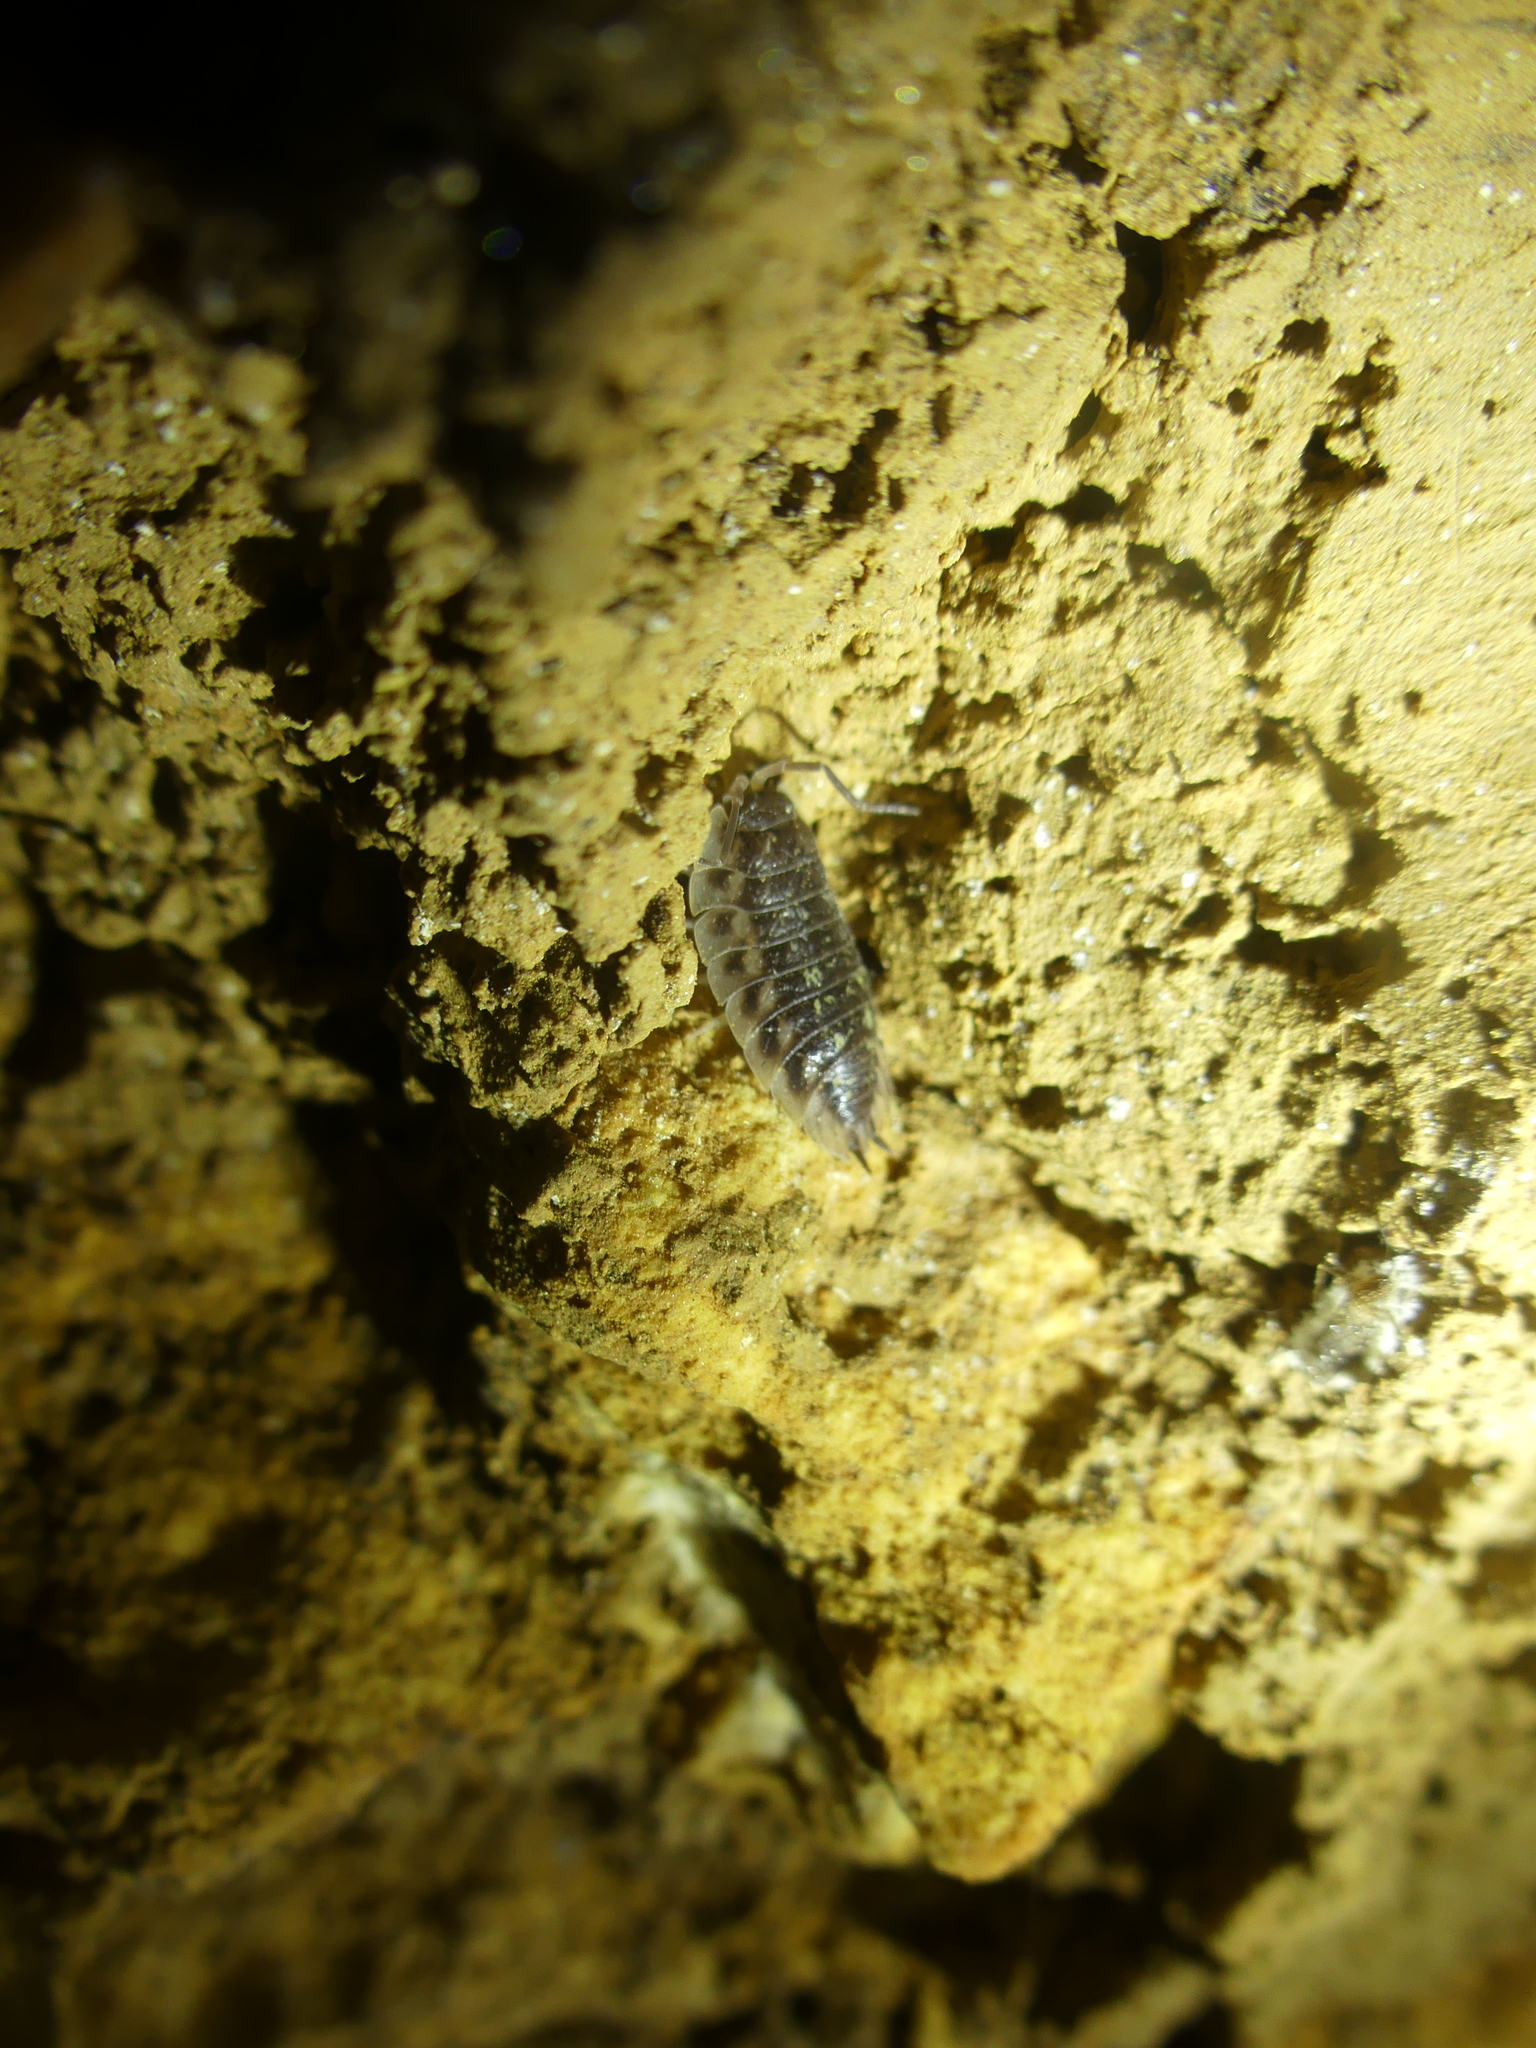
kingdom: Animalia
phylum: Arthropoda
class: Malacostraca
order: Isopoda
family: Oniscidae
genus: Oniscus
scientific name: Oniscus asellus
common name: Common shiny woodlouse
